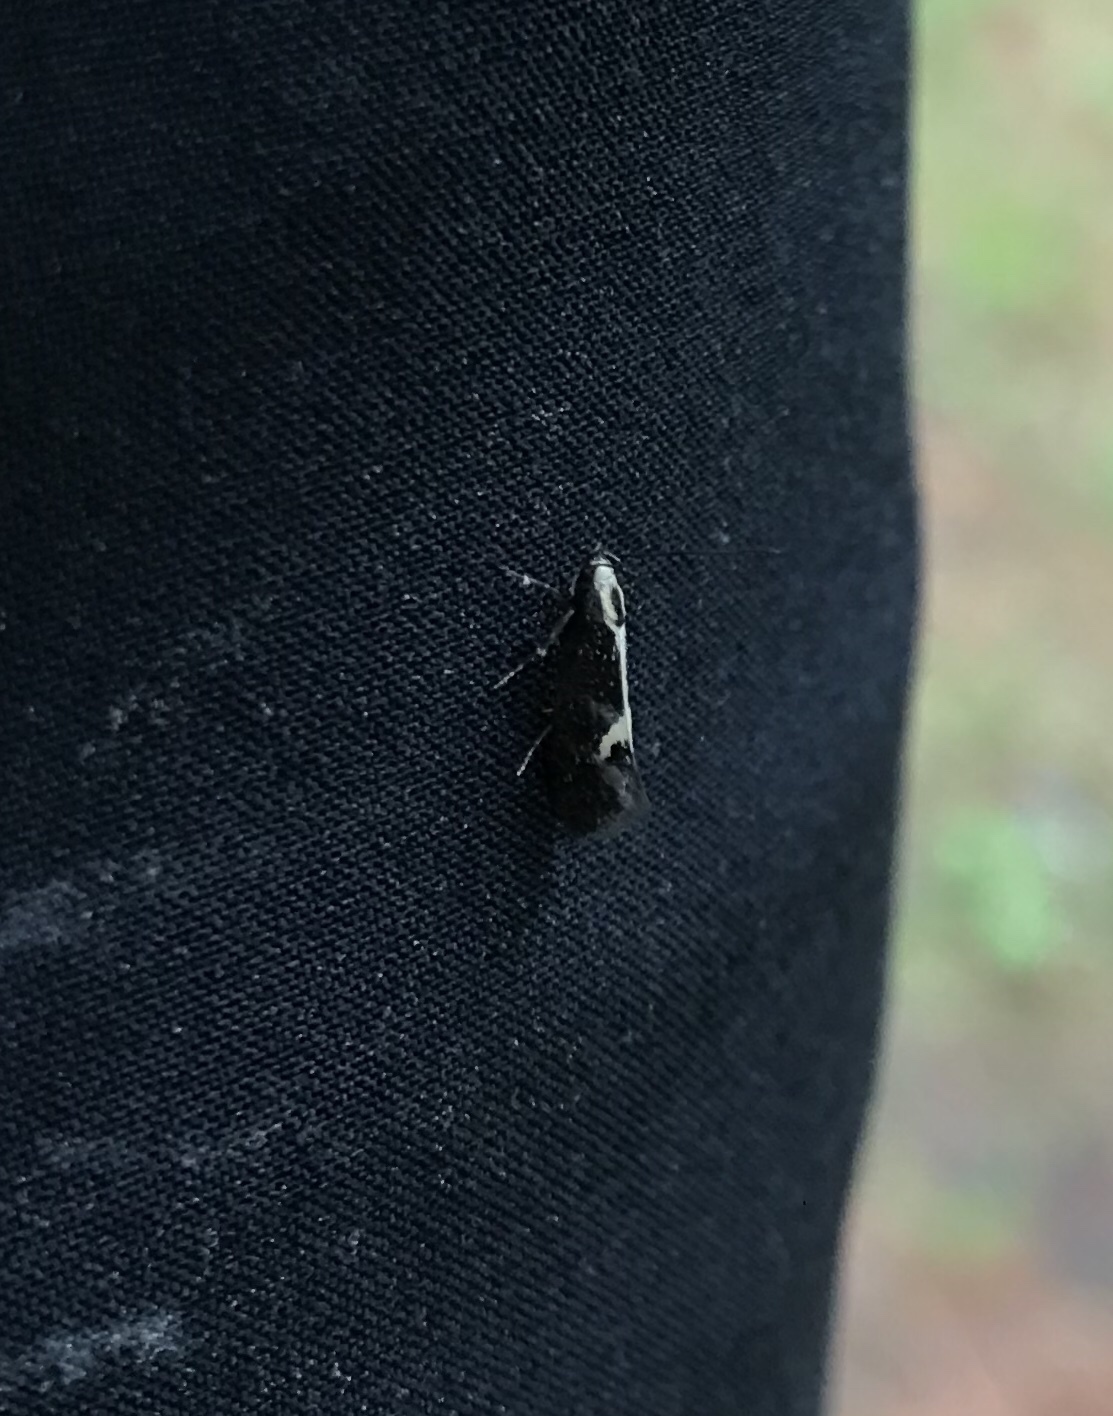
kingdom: Animalia
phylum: Arthropoda
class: Insecta
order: Lepidoptera
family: Oecophoridae
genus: Polix
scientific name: Polix coloradella
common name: Skunk moth
